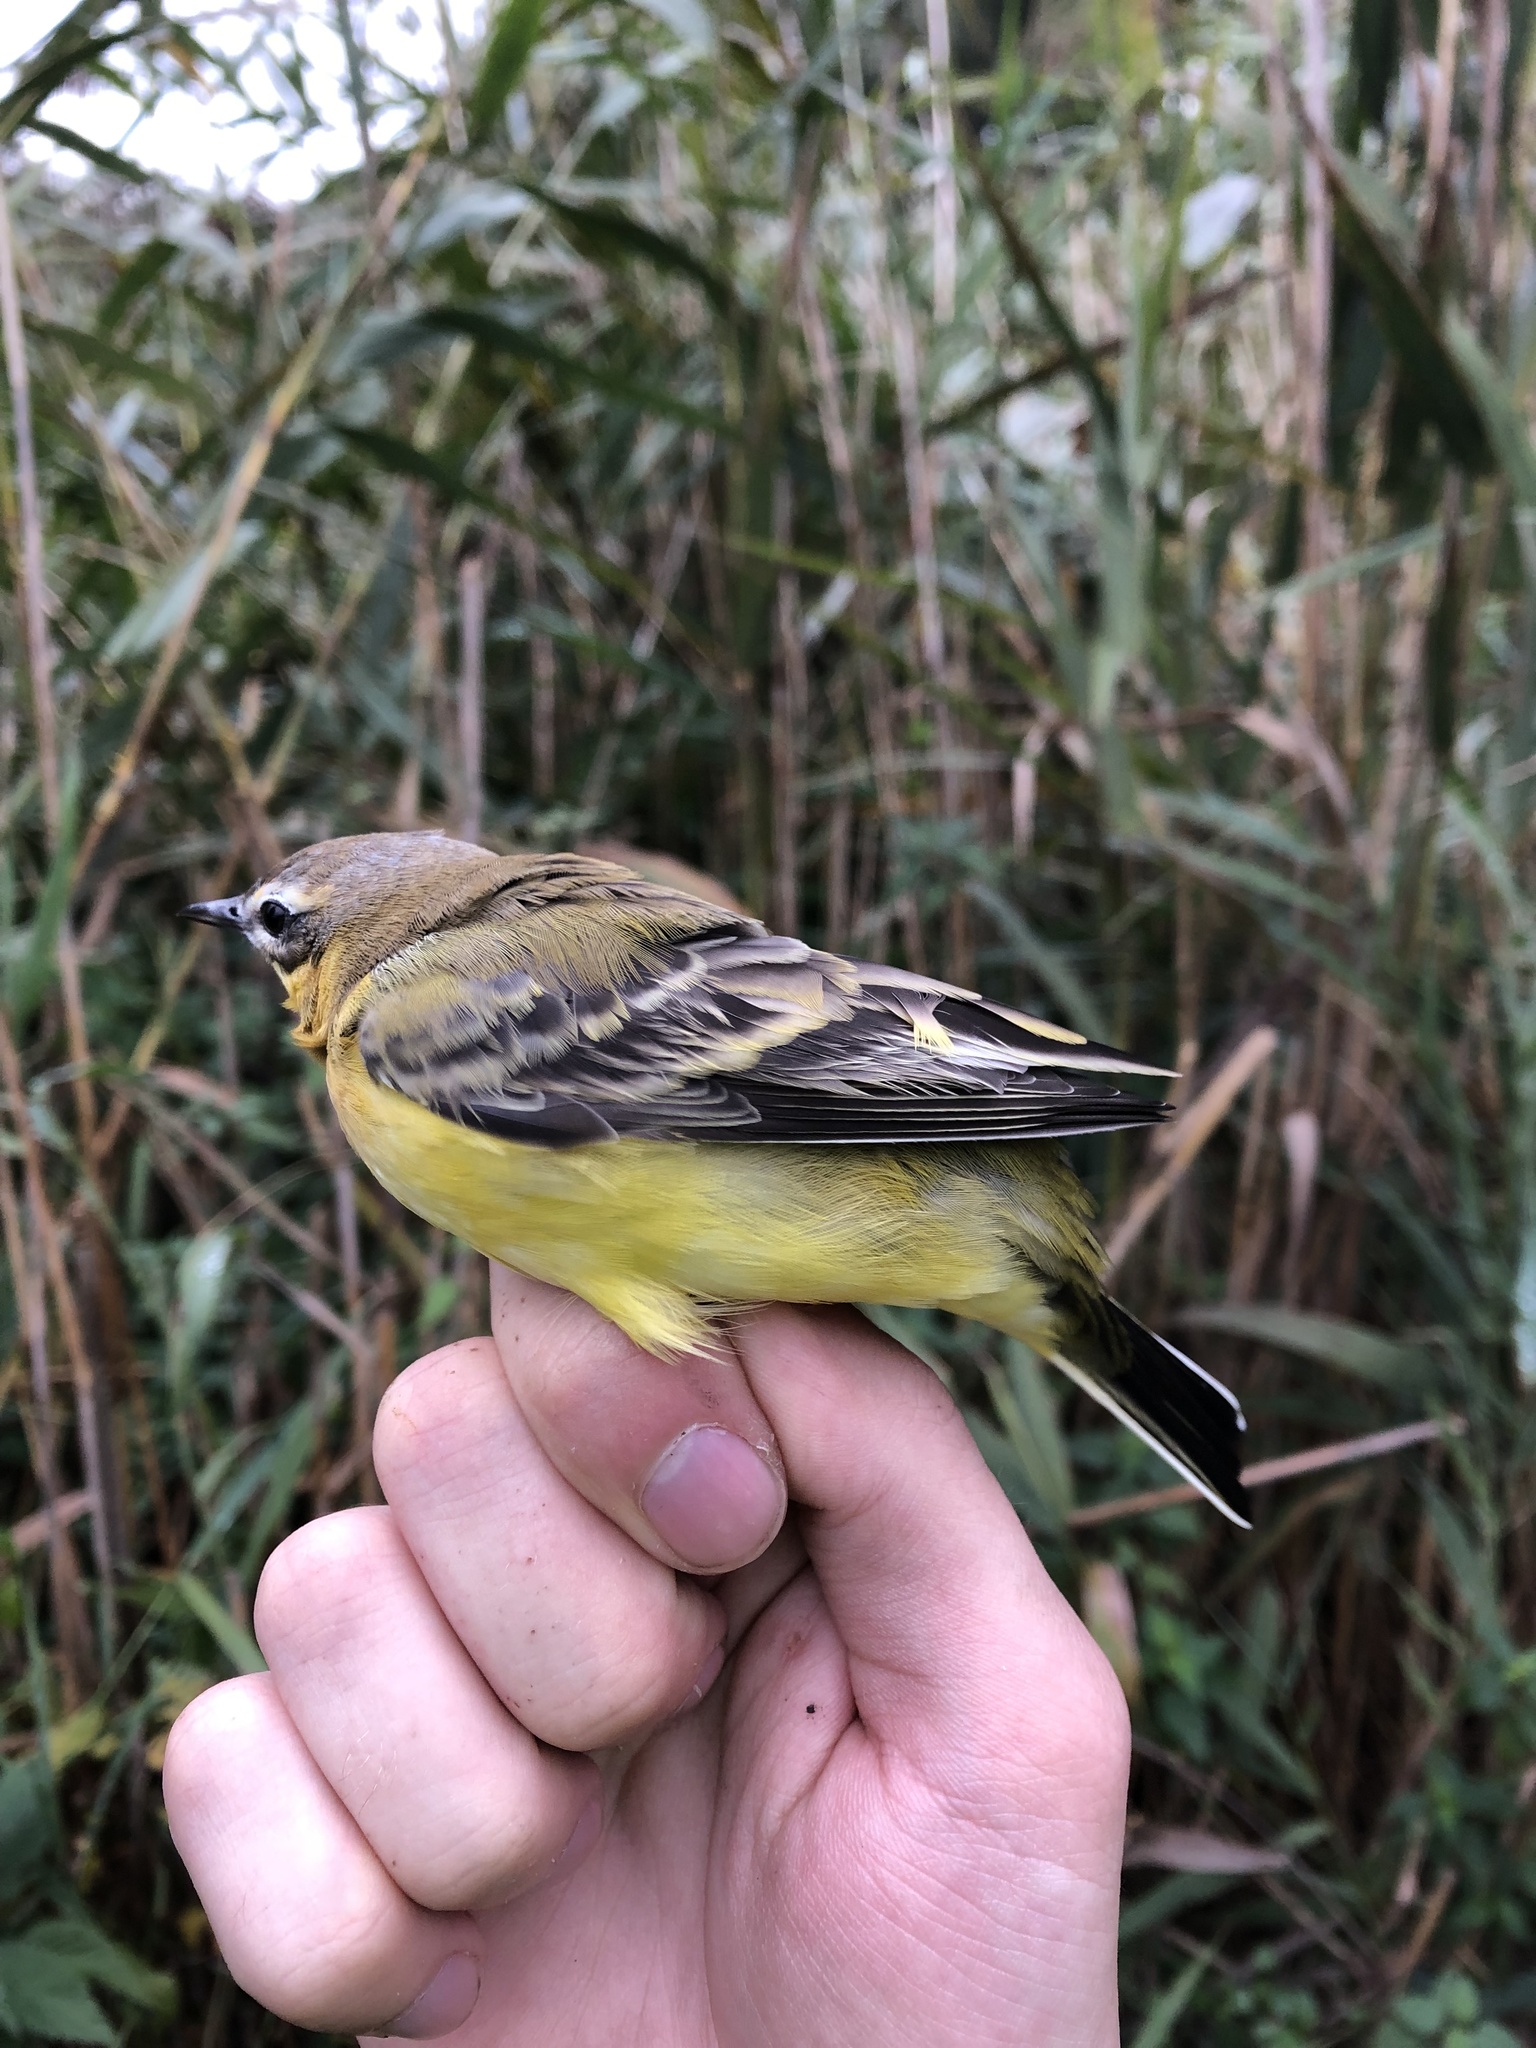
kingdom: Animalia
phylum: Chordata
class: Aves
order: Passeriformes
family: Motacillidae
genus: Motacilla
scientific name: Motacilla flava
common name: Western yellow wagtail
